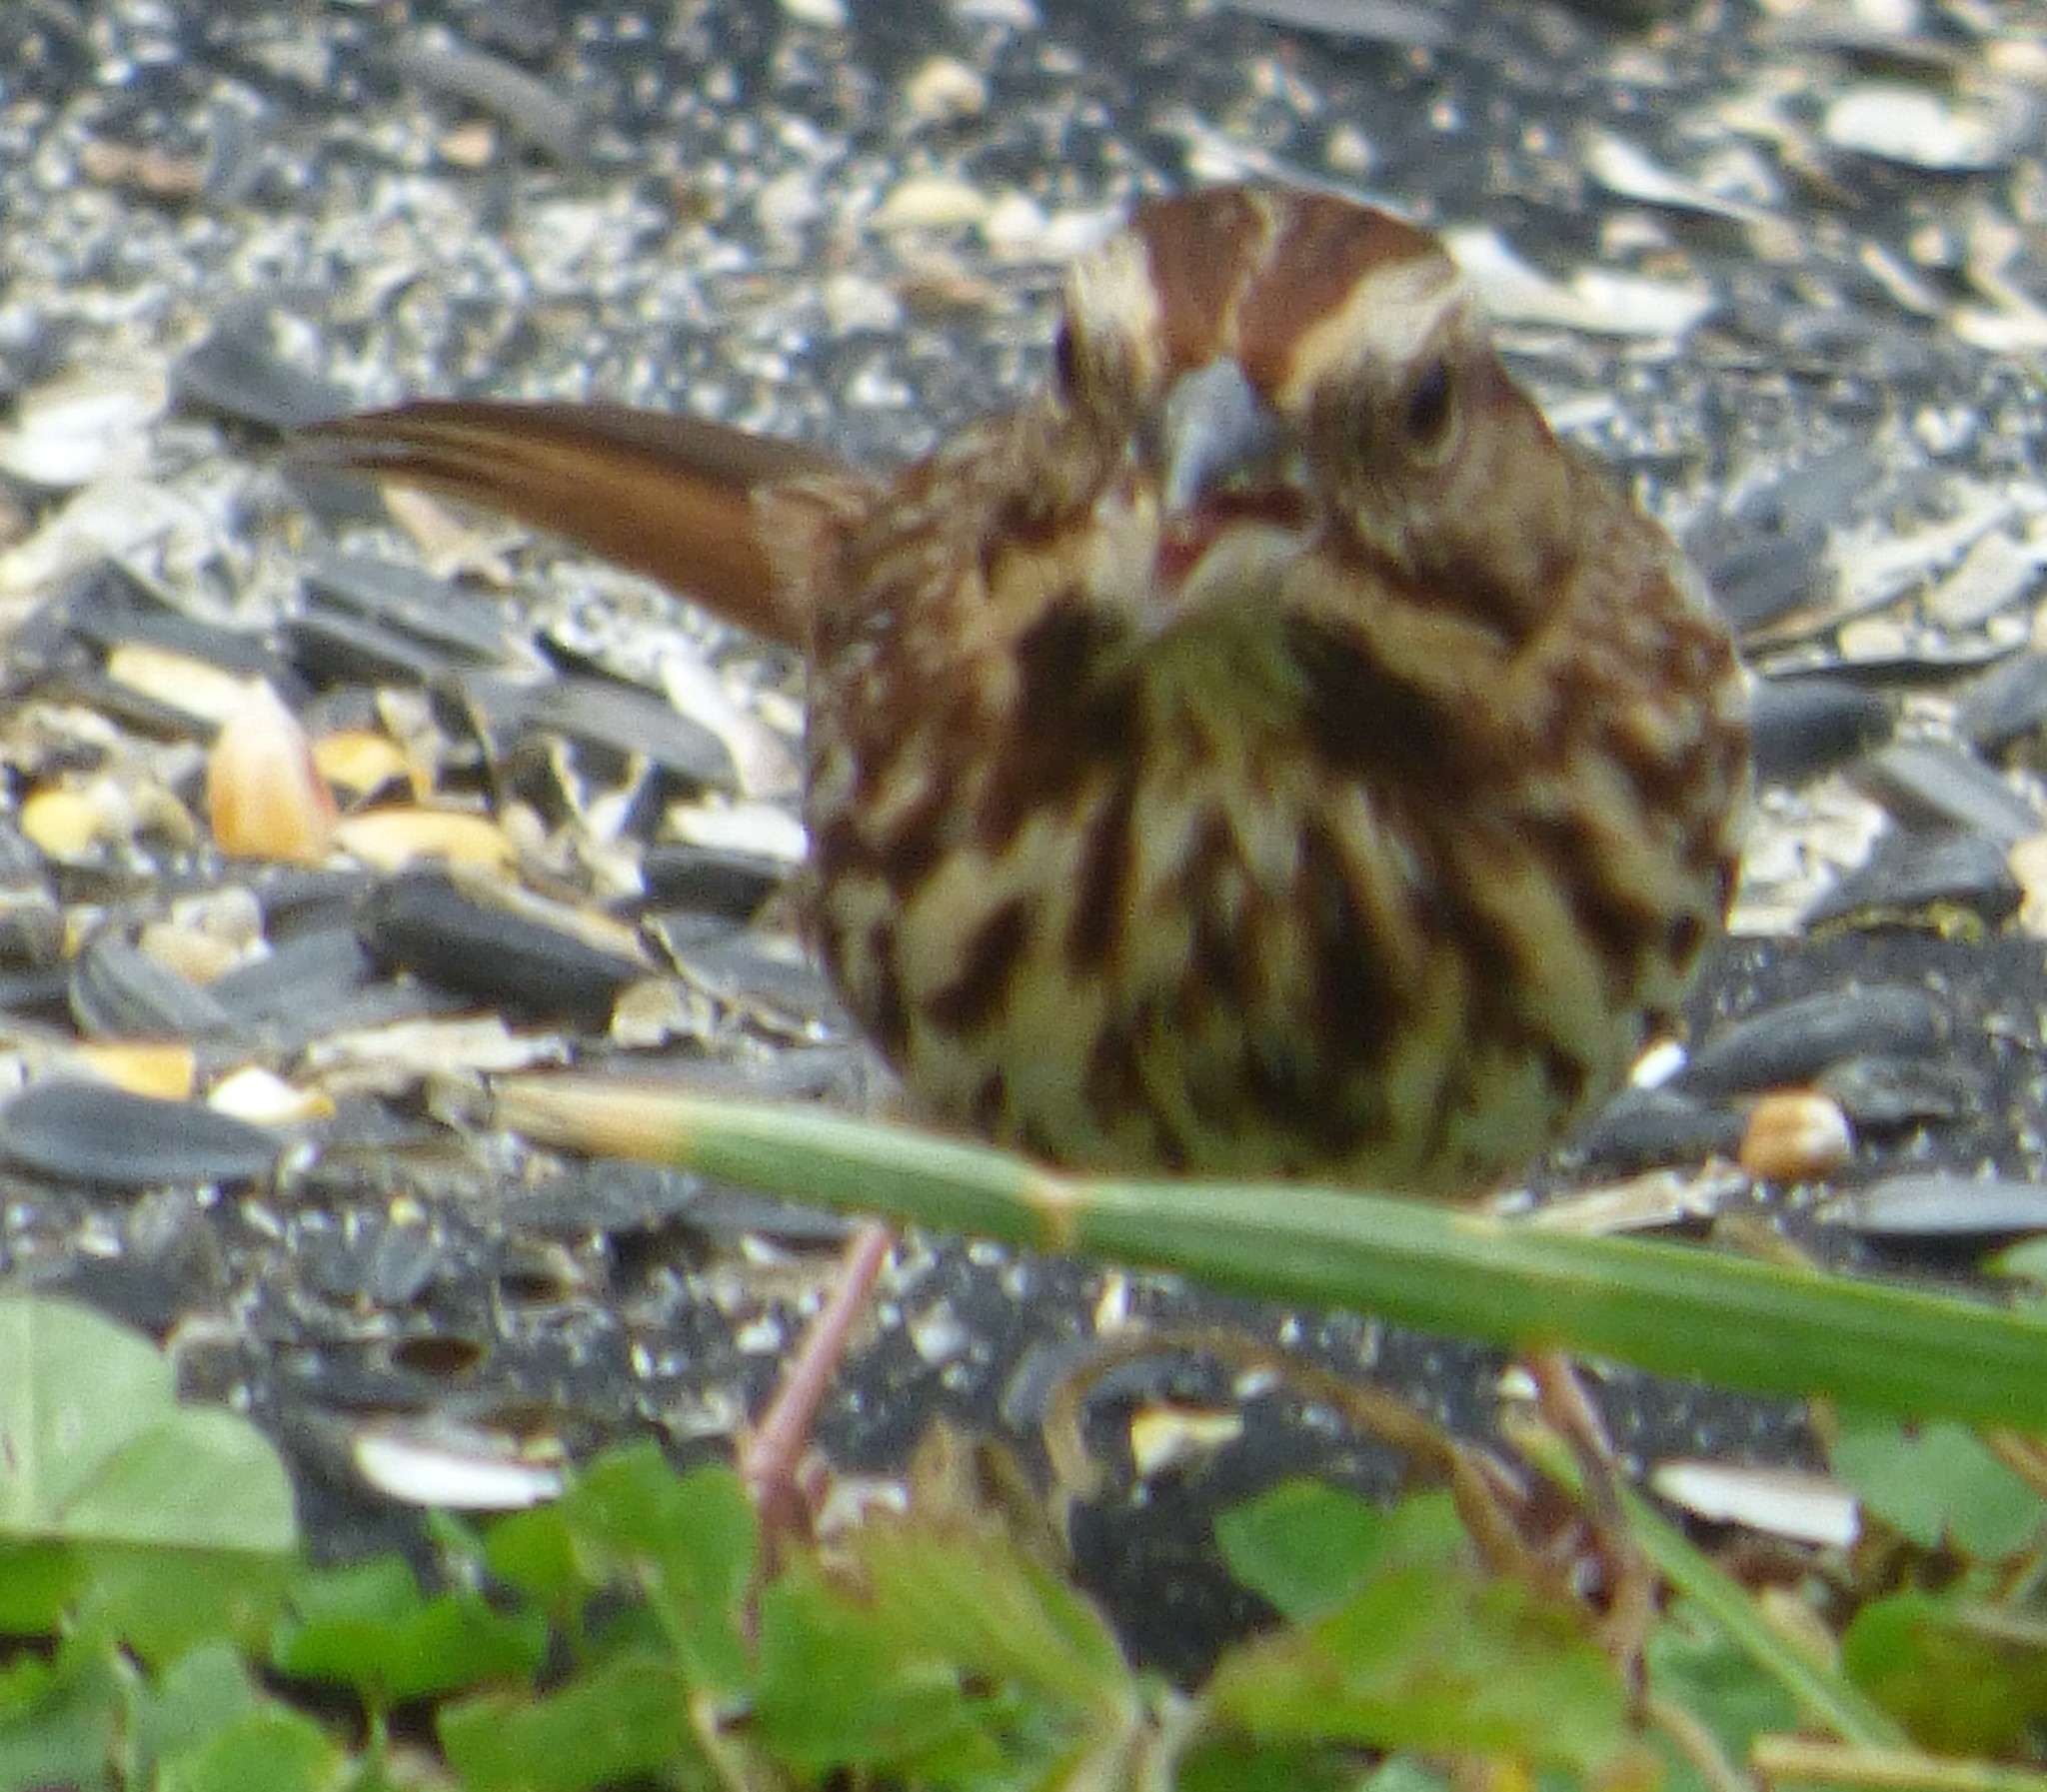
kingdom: Animalia
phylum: Chordata
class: Aves
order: Passeriformes
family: Passerellidae
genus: Melospiza
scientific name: Melospiza melodia
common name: Song sparrow
